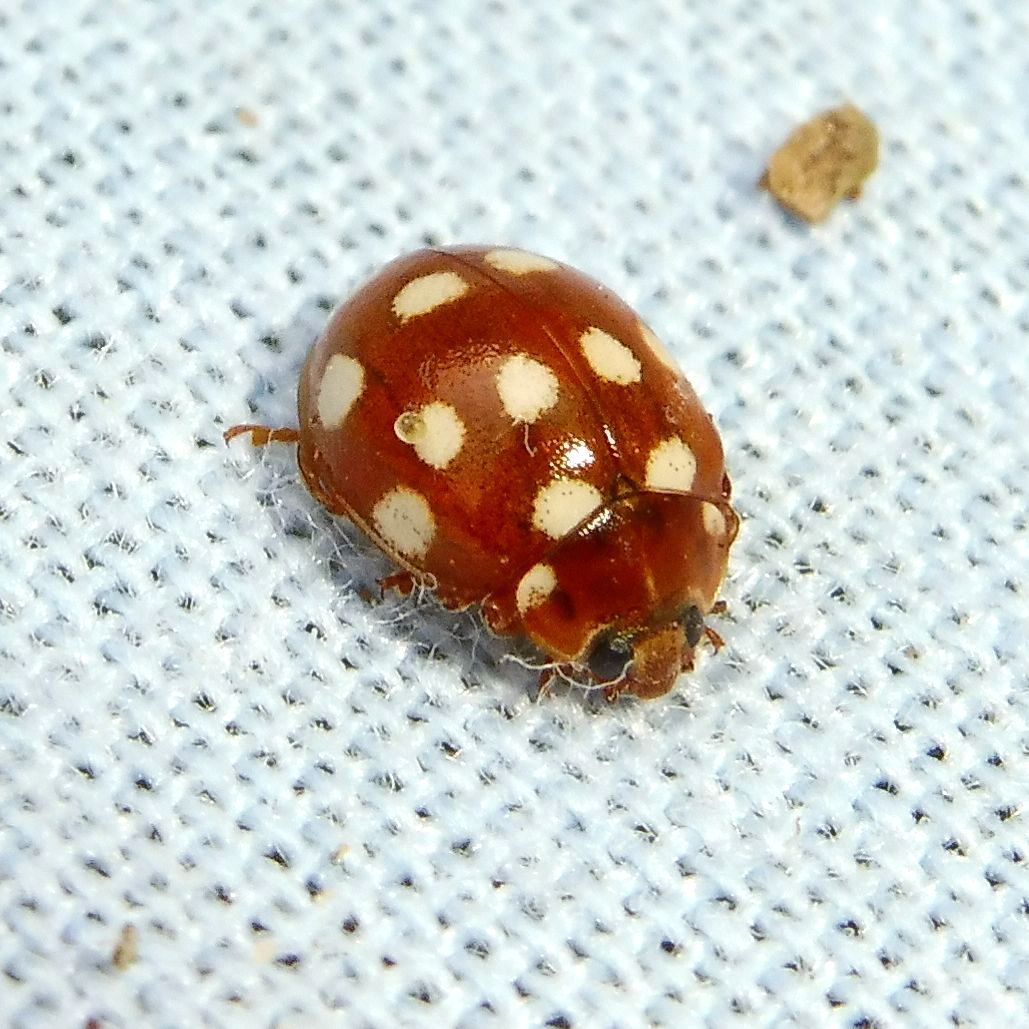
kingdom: Animalia
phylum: Arthropoda
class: Insecta
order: Coleoptera
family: Coccinellidae
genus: Calvia
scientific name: Calvia quatuordecimguttata
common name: Cream-spot ladybird
